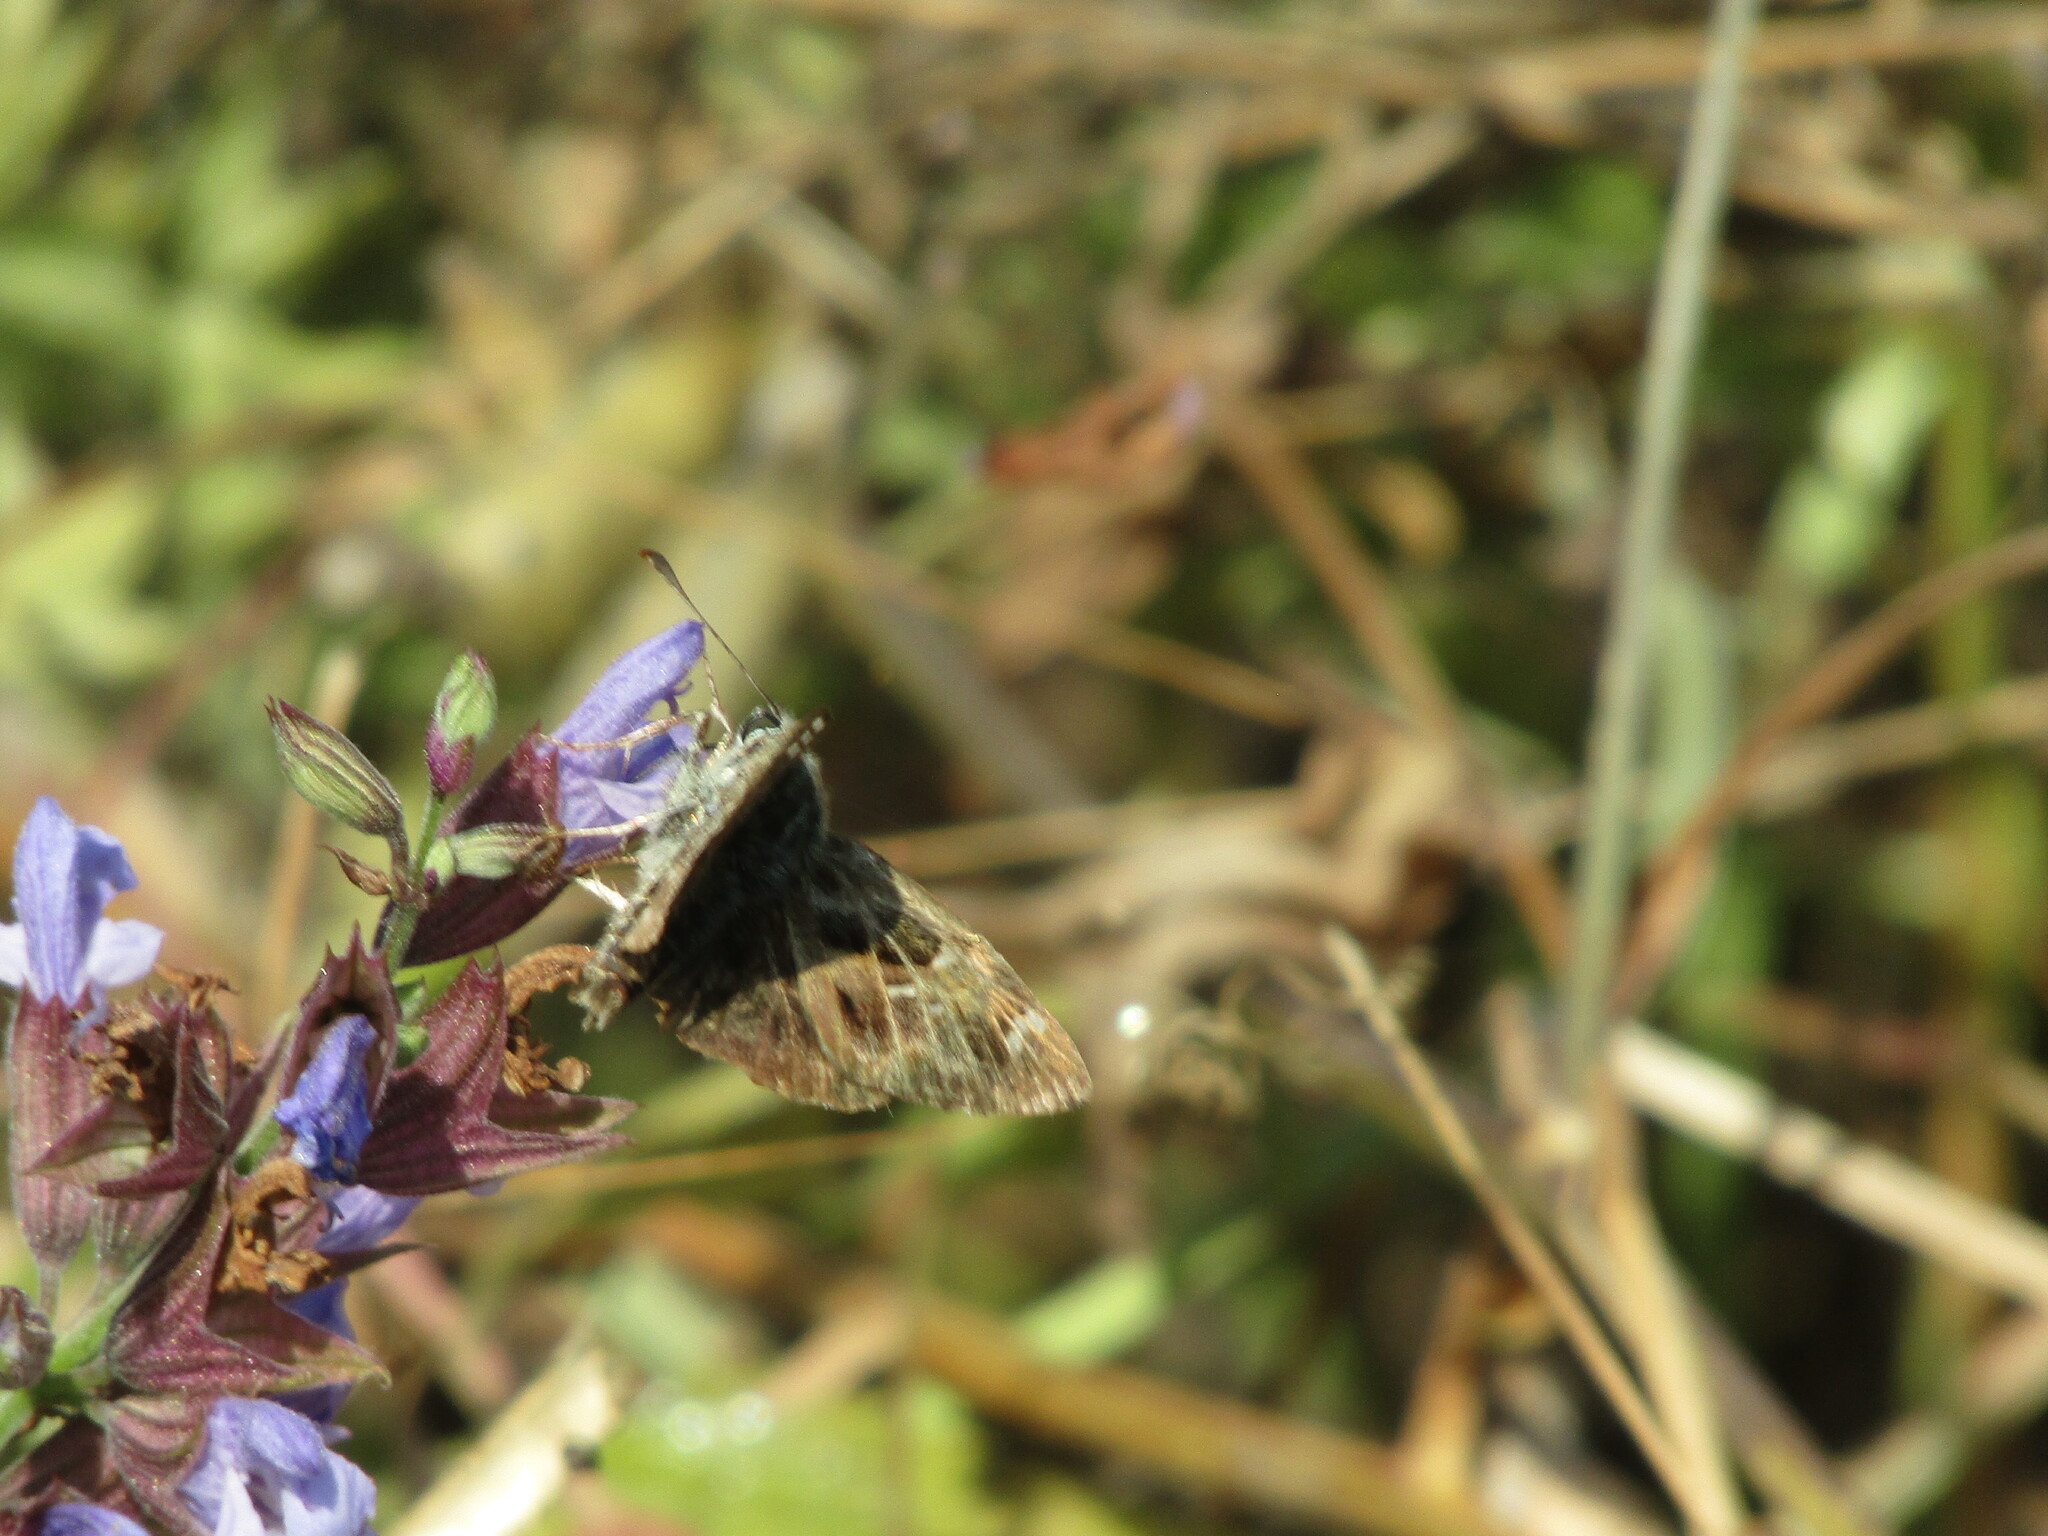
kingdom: Animalia
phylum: Arthropoda
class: Insecta
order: Lepidoptera
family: Hesperiidae
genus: Carcharodus
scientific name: Carcharodus alceae
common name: Mallow skipper
